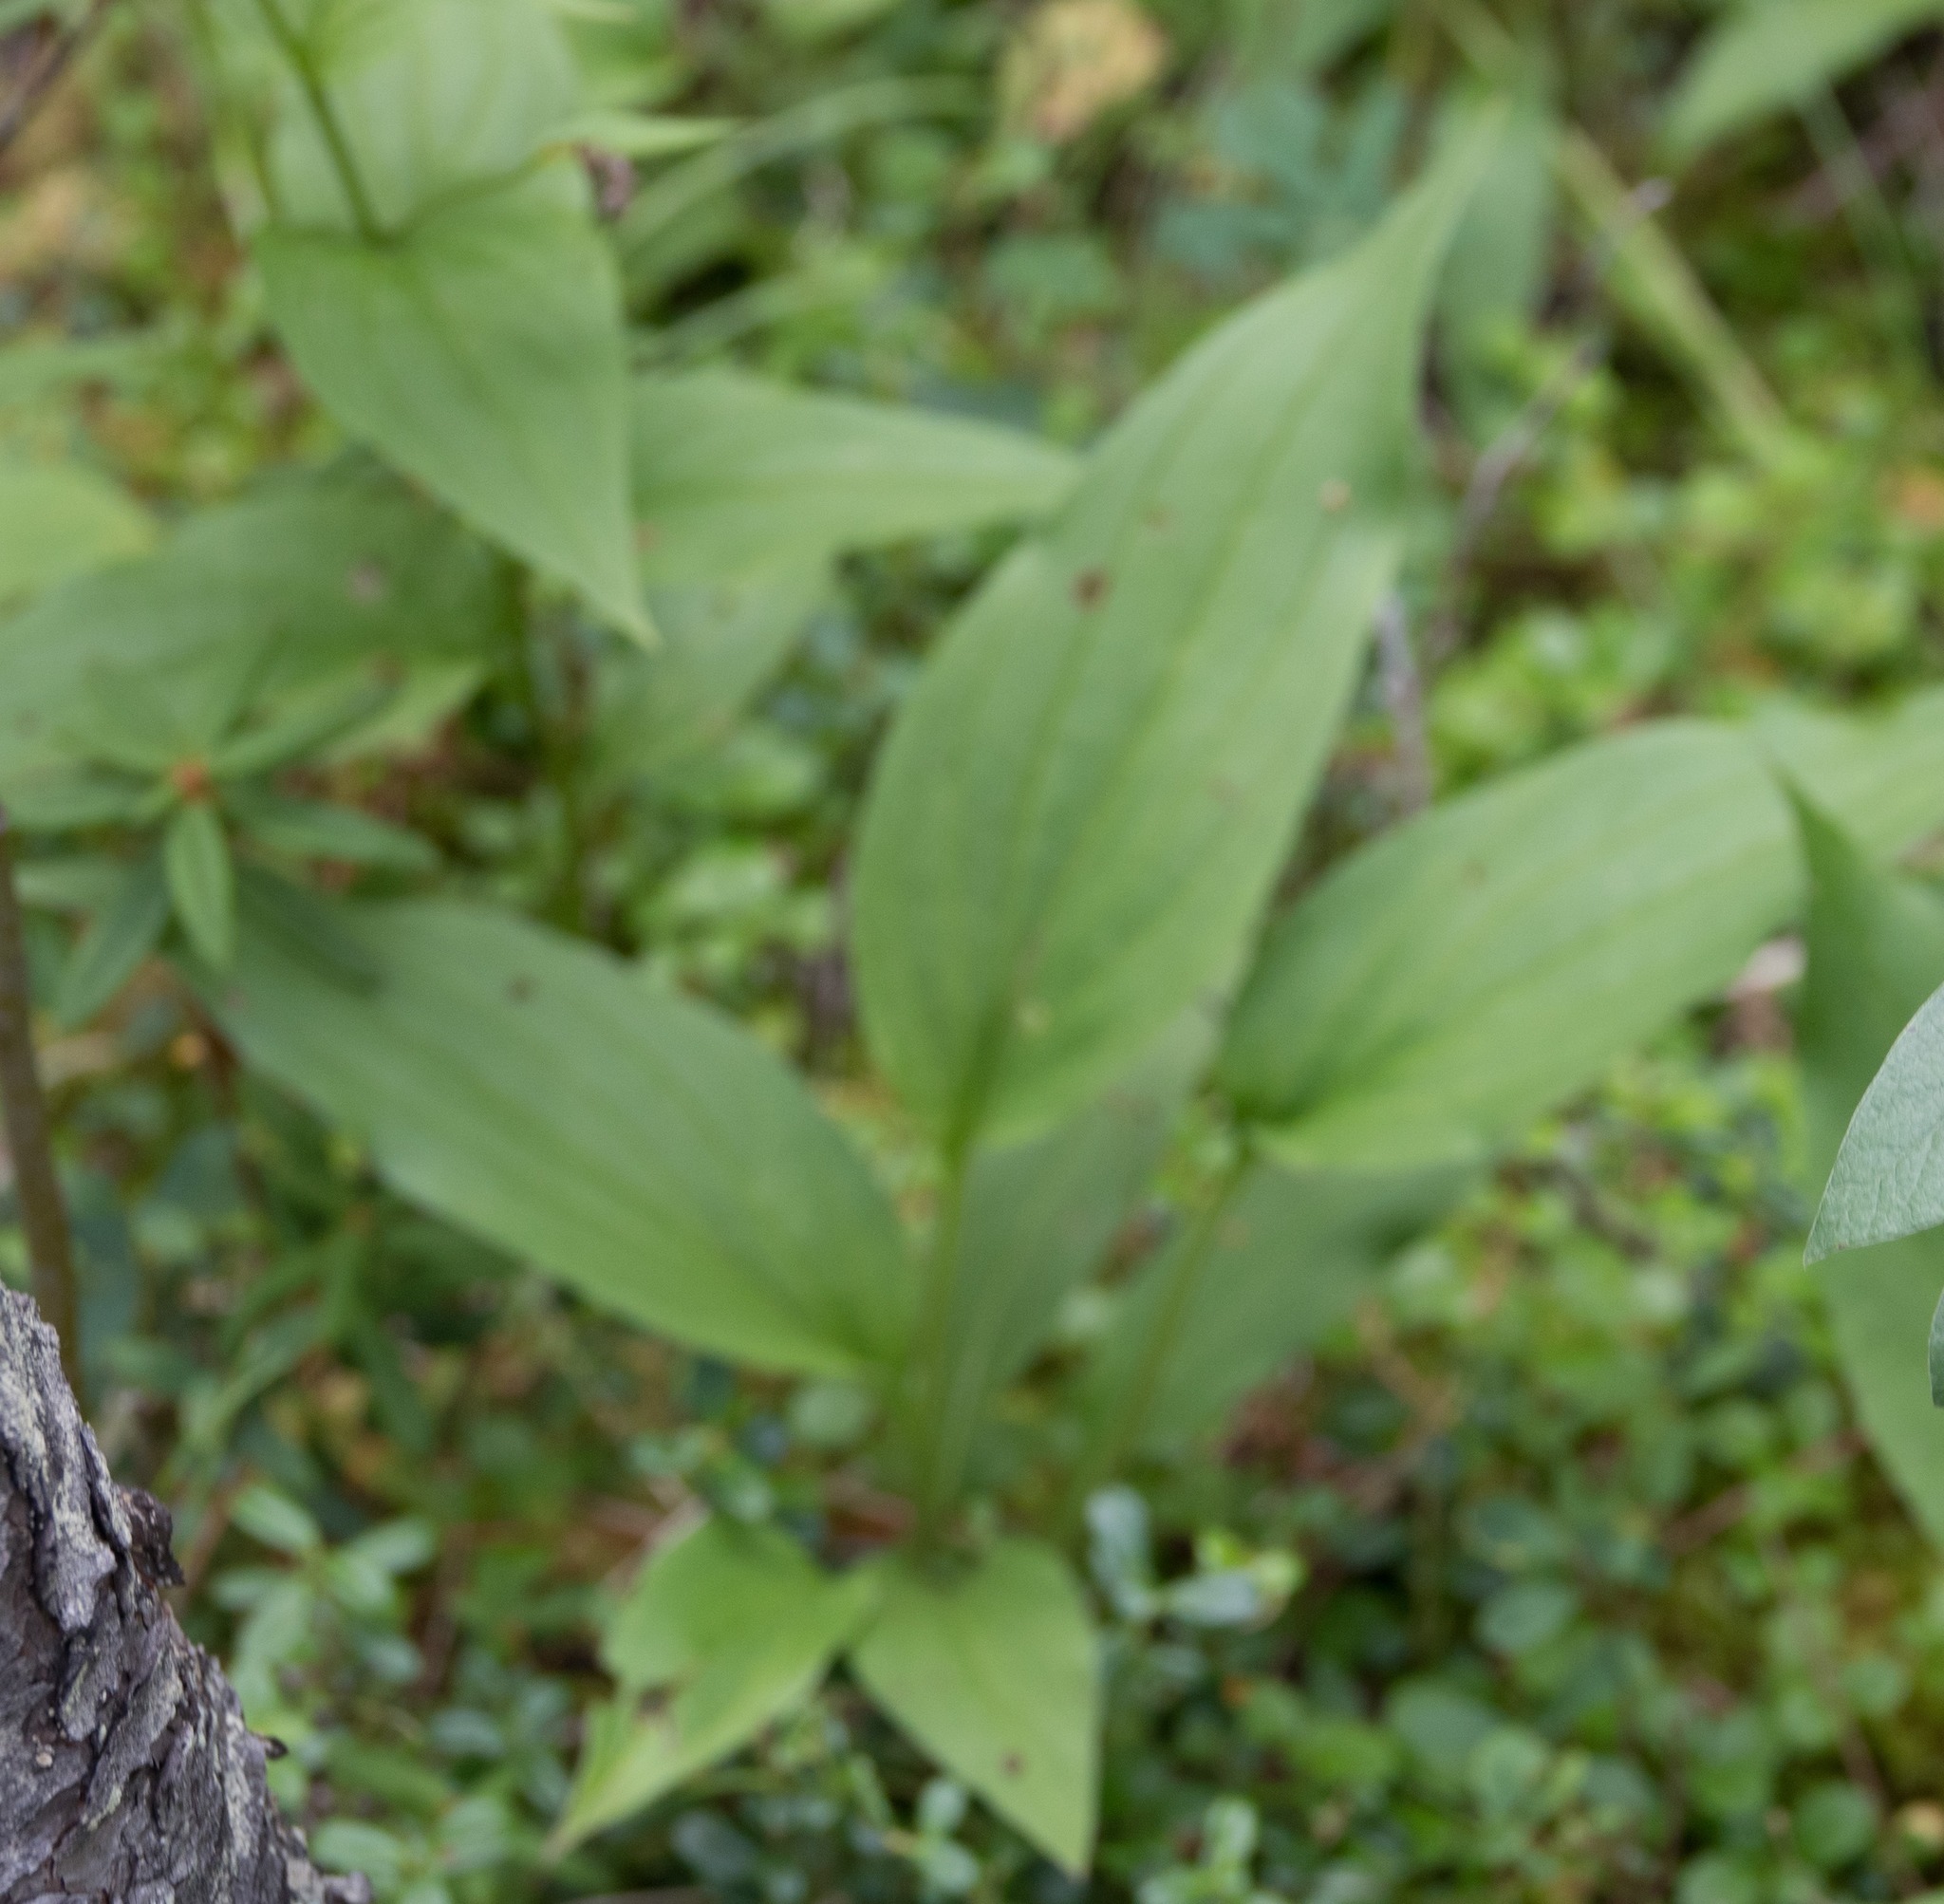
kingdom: Plantae
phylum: Tracheophyta
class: Magnoliopsida
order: Boraginales
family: Boraginaceae
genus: Mertensia
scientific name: Mertensia paniculata
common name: Panicled bluebells
